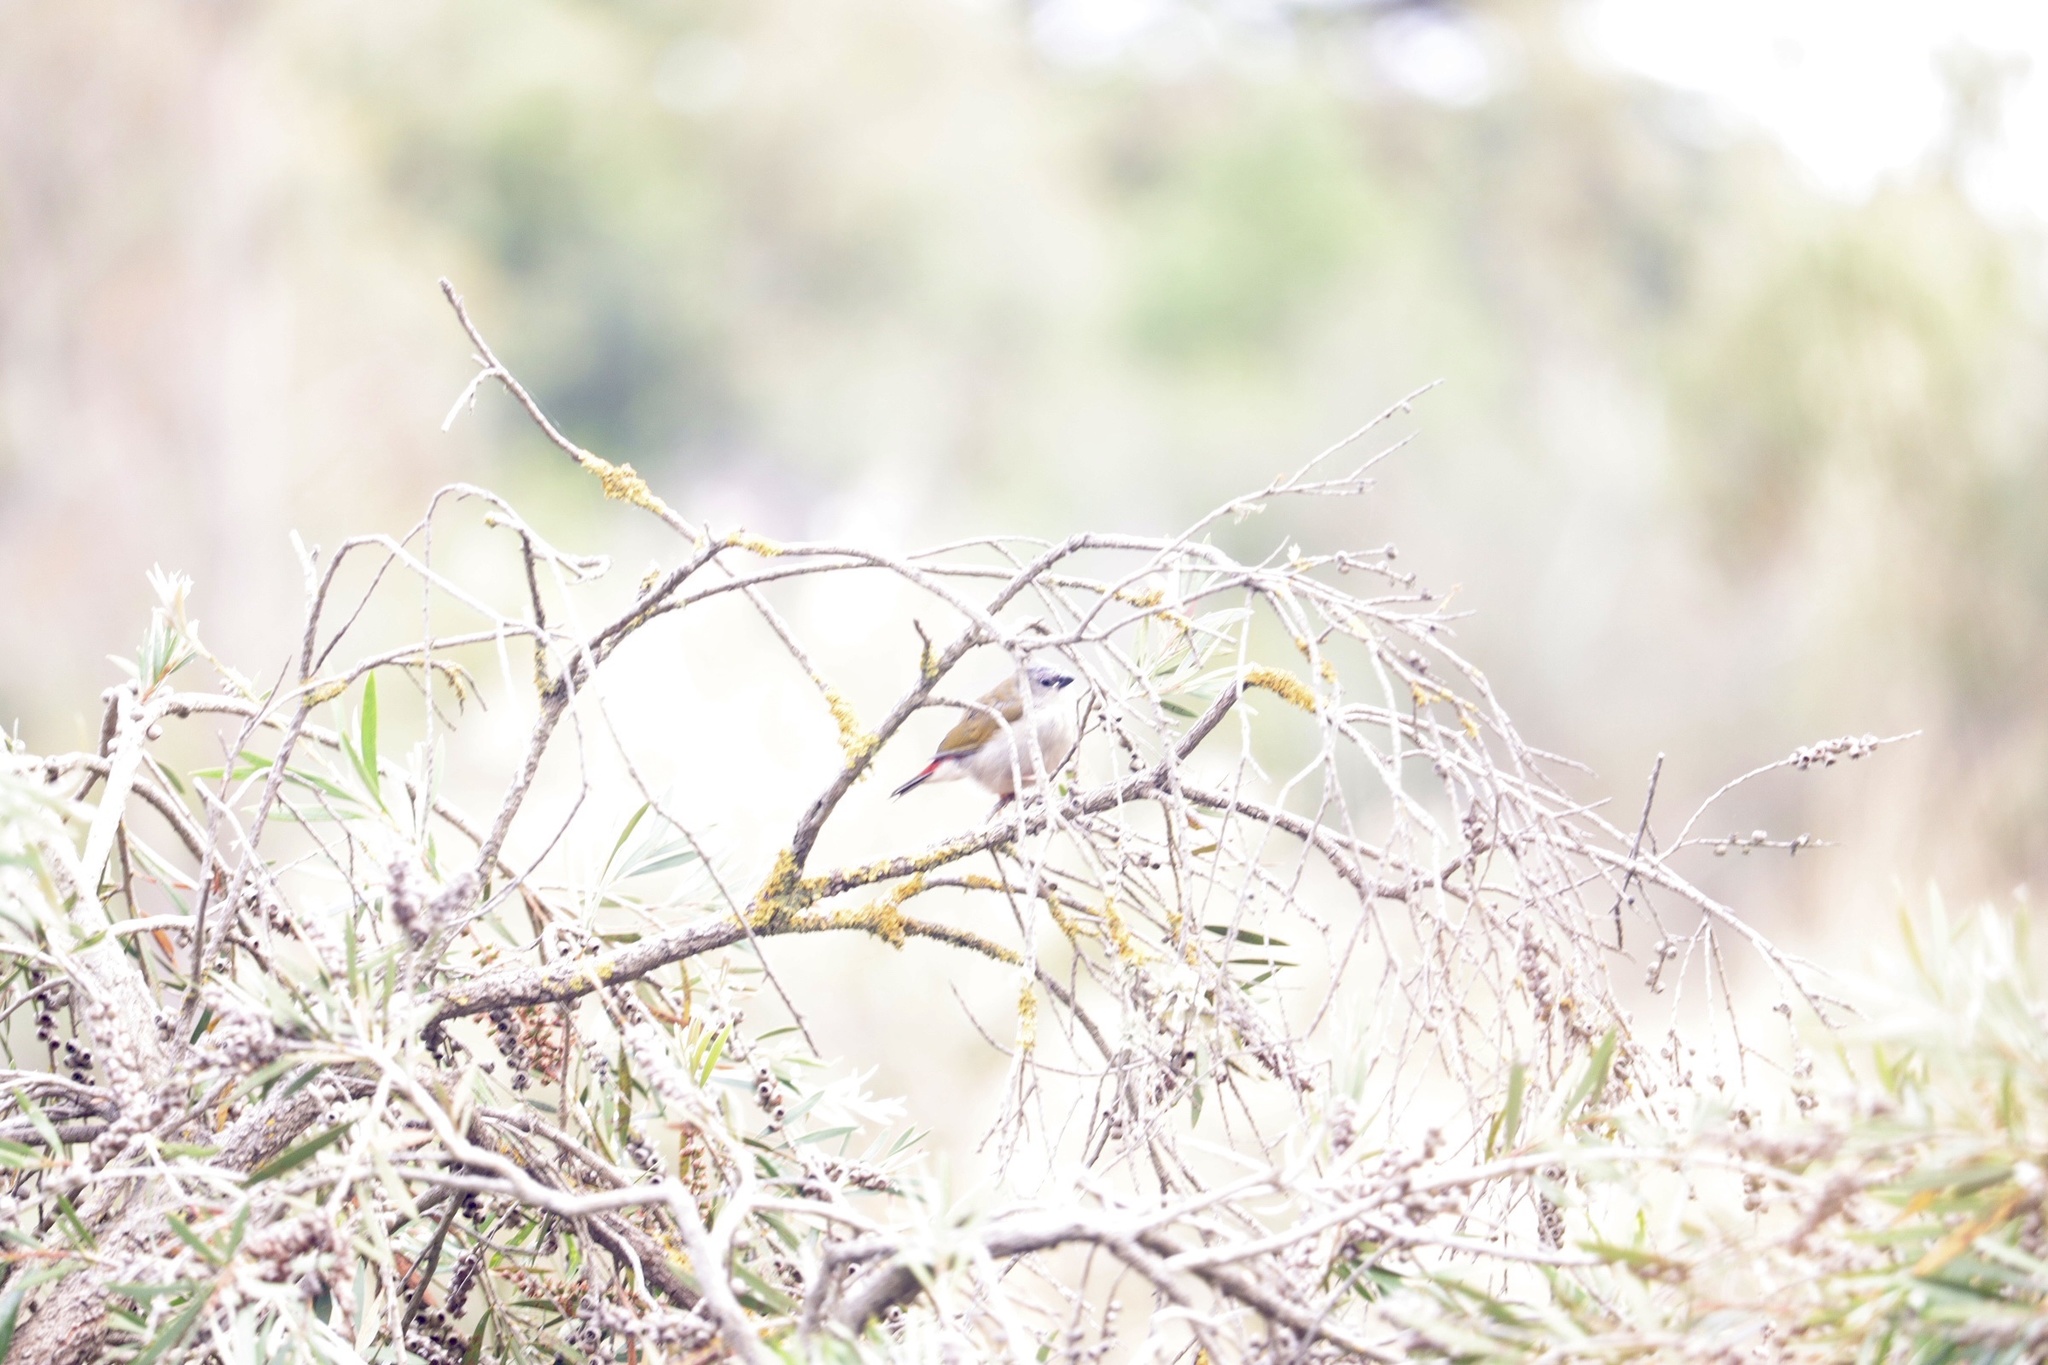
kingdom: Animalia
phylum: Chordata
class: Aves
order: Passeriformes
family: Estrildidae
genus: Neochmia
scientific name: Neochmia temporalis
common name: Red-browed finch
